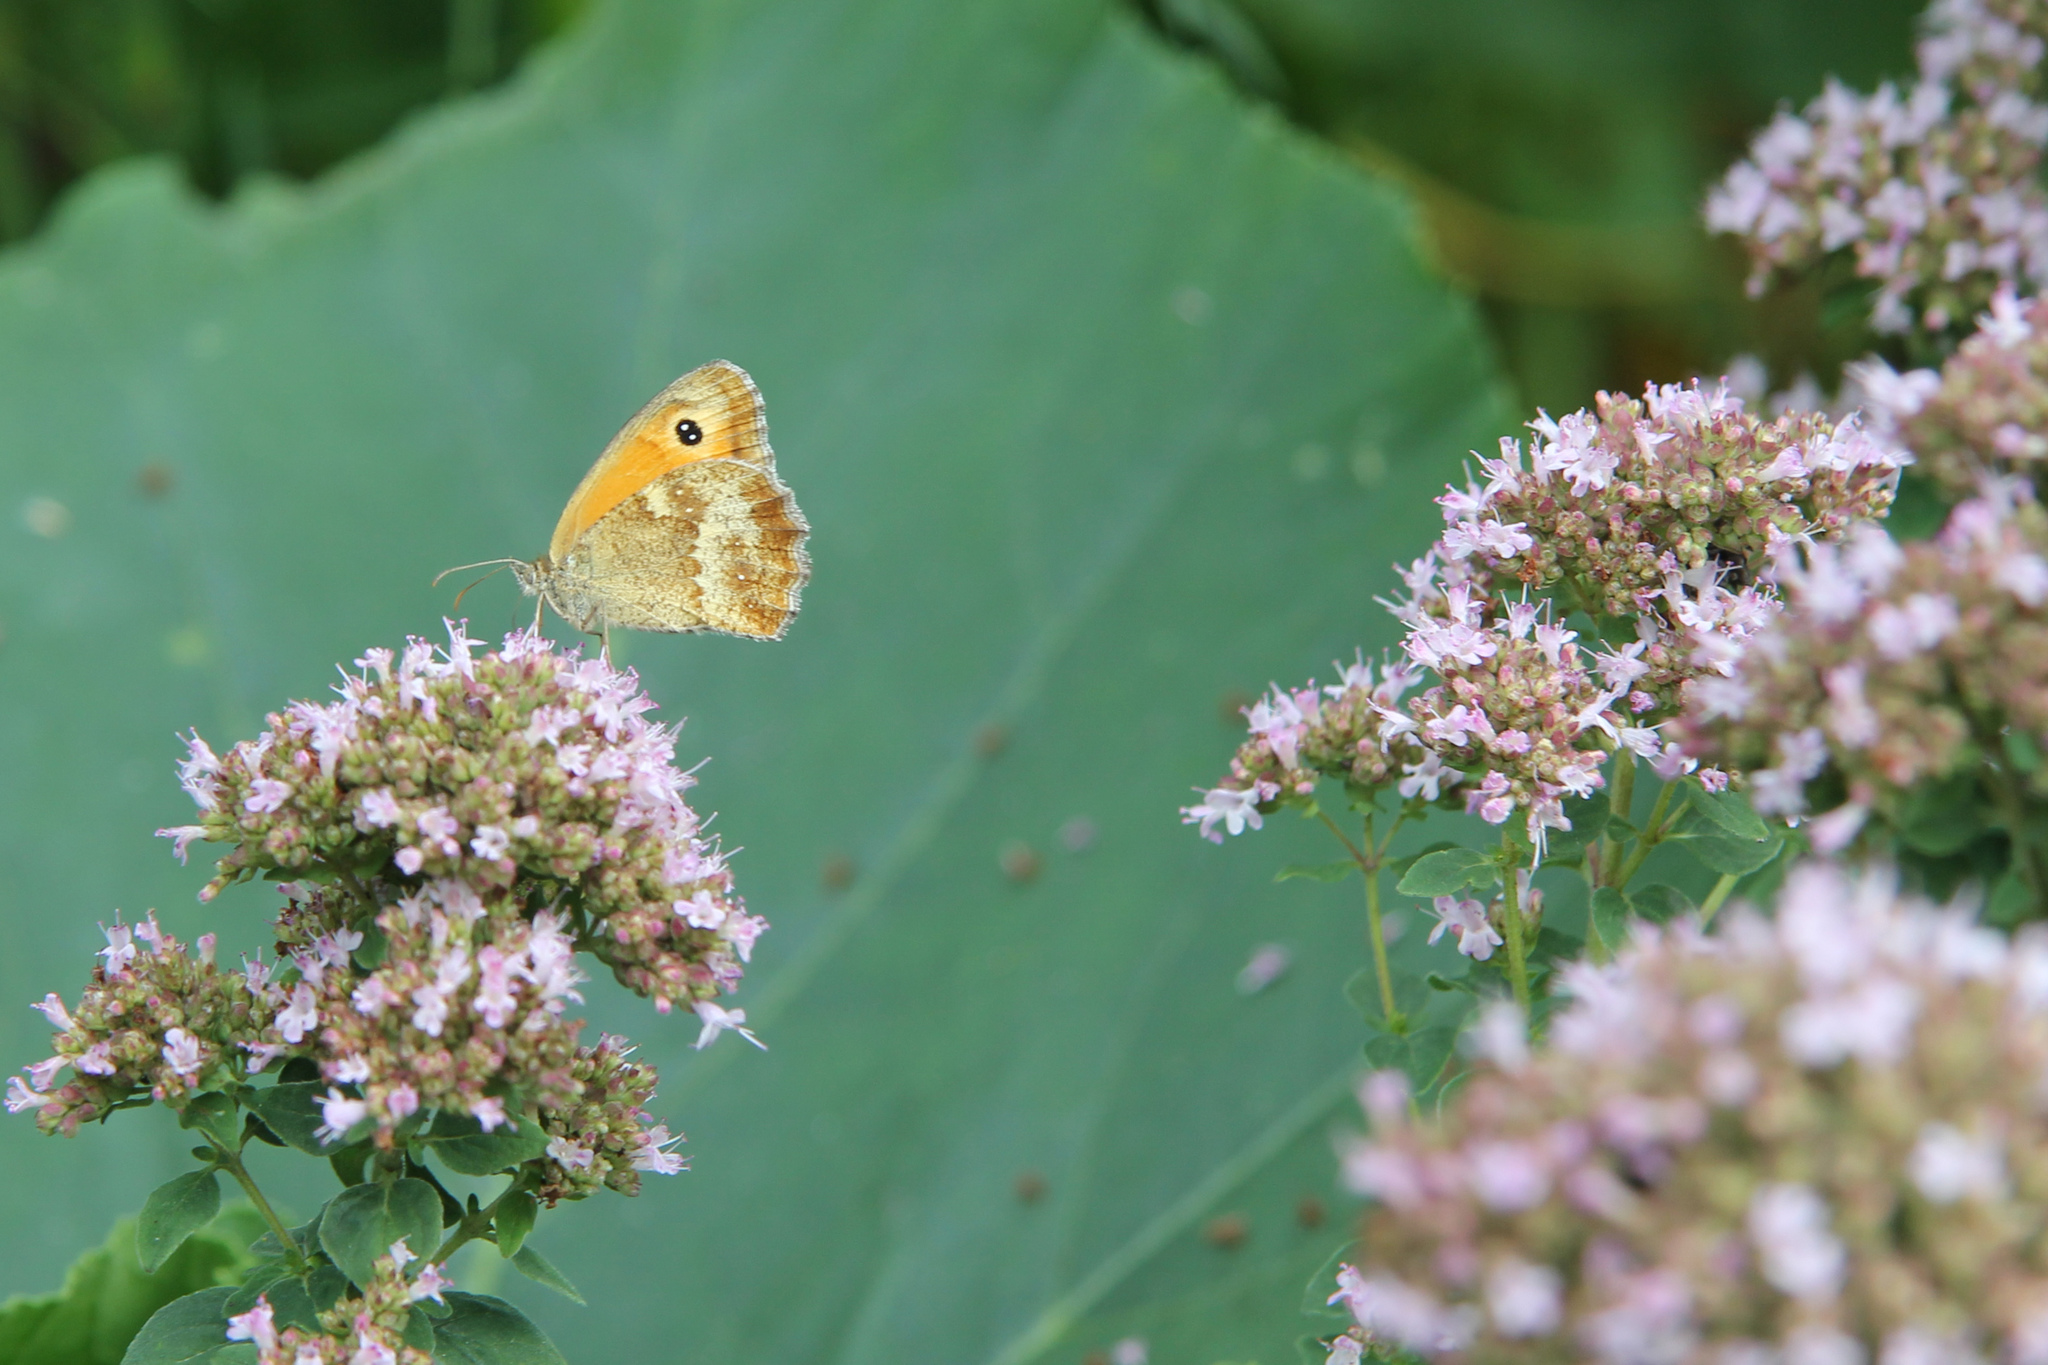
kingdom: Animalia
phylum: Arthropoda
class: Insecta
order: Lepidoptera
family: Nymphalidae
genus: Pyronia
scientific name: Pyronia tithonus
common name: Gatekeeper
